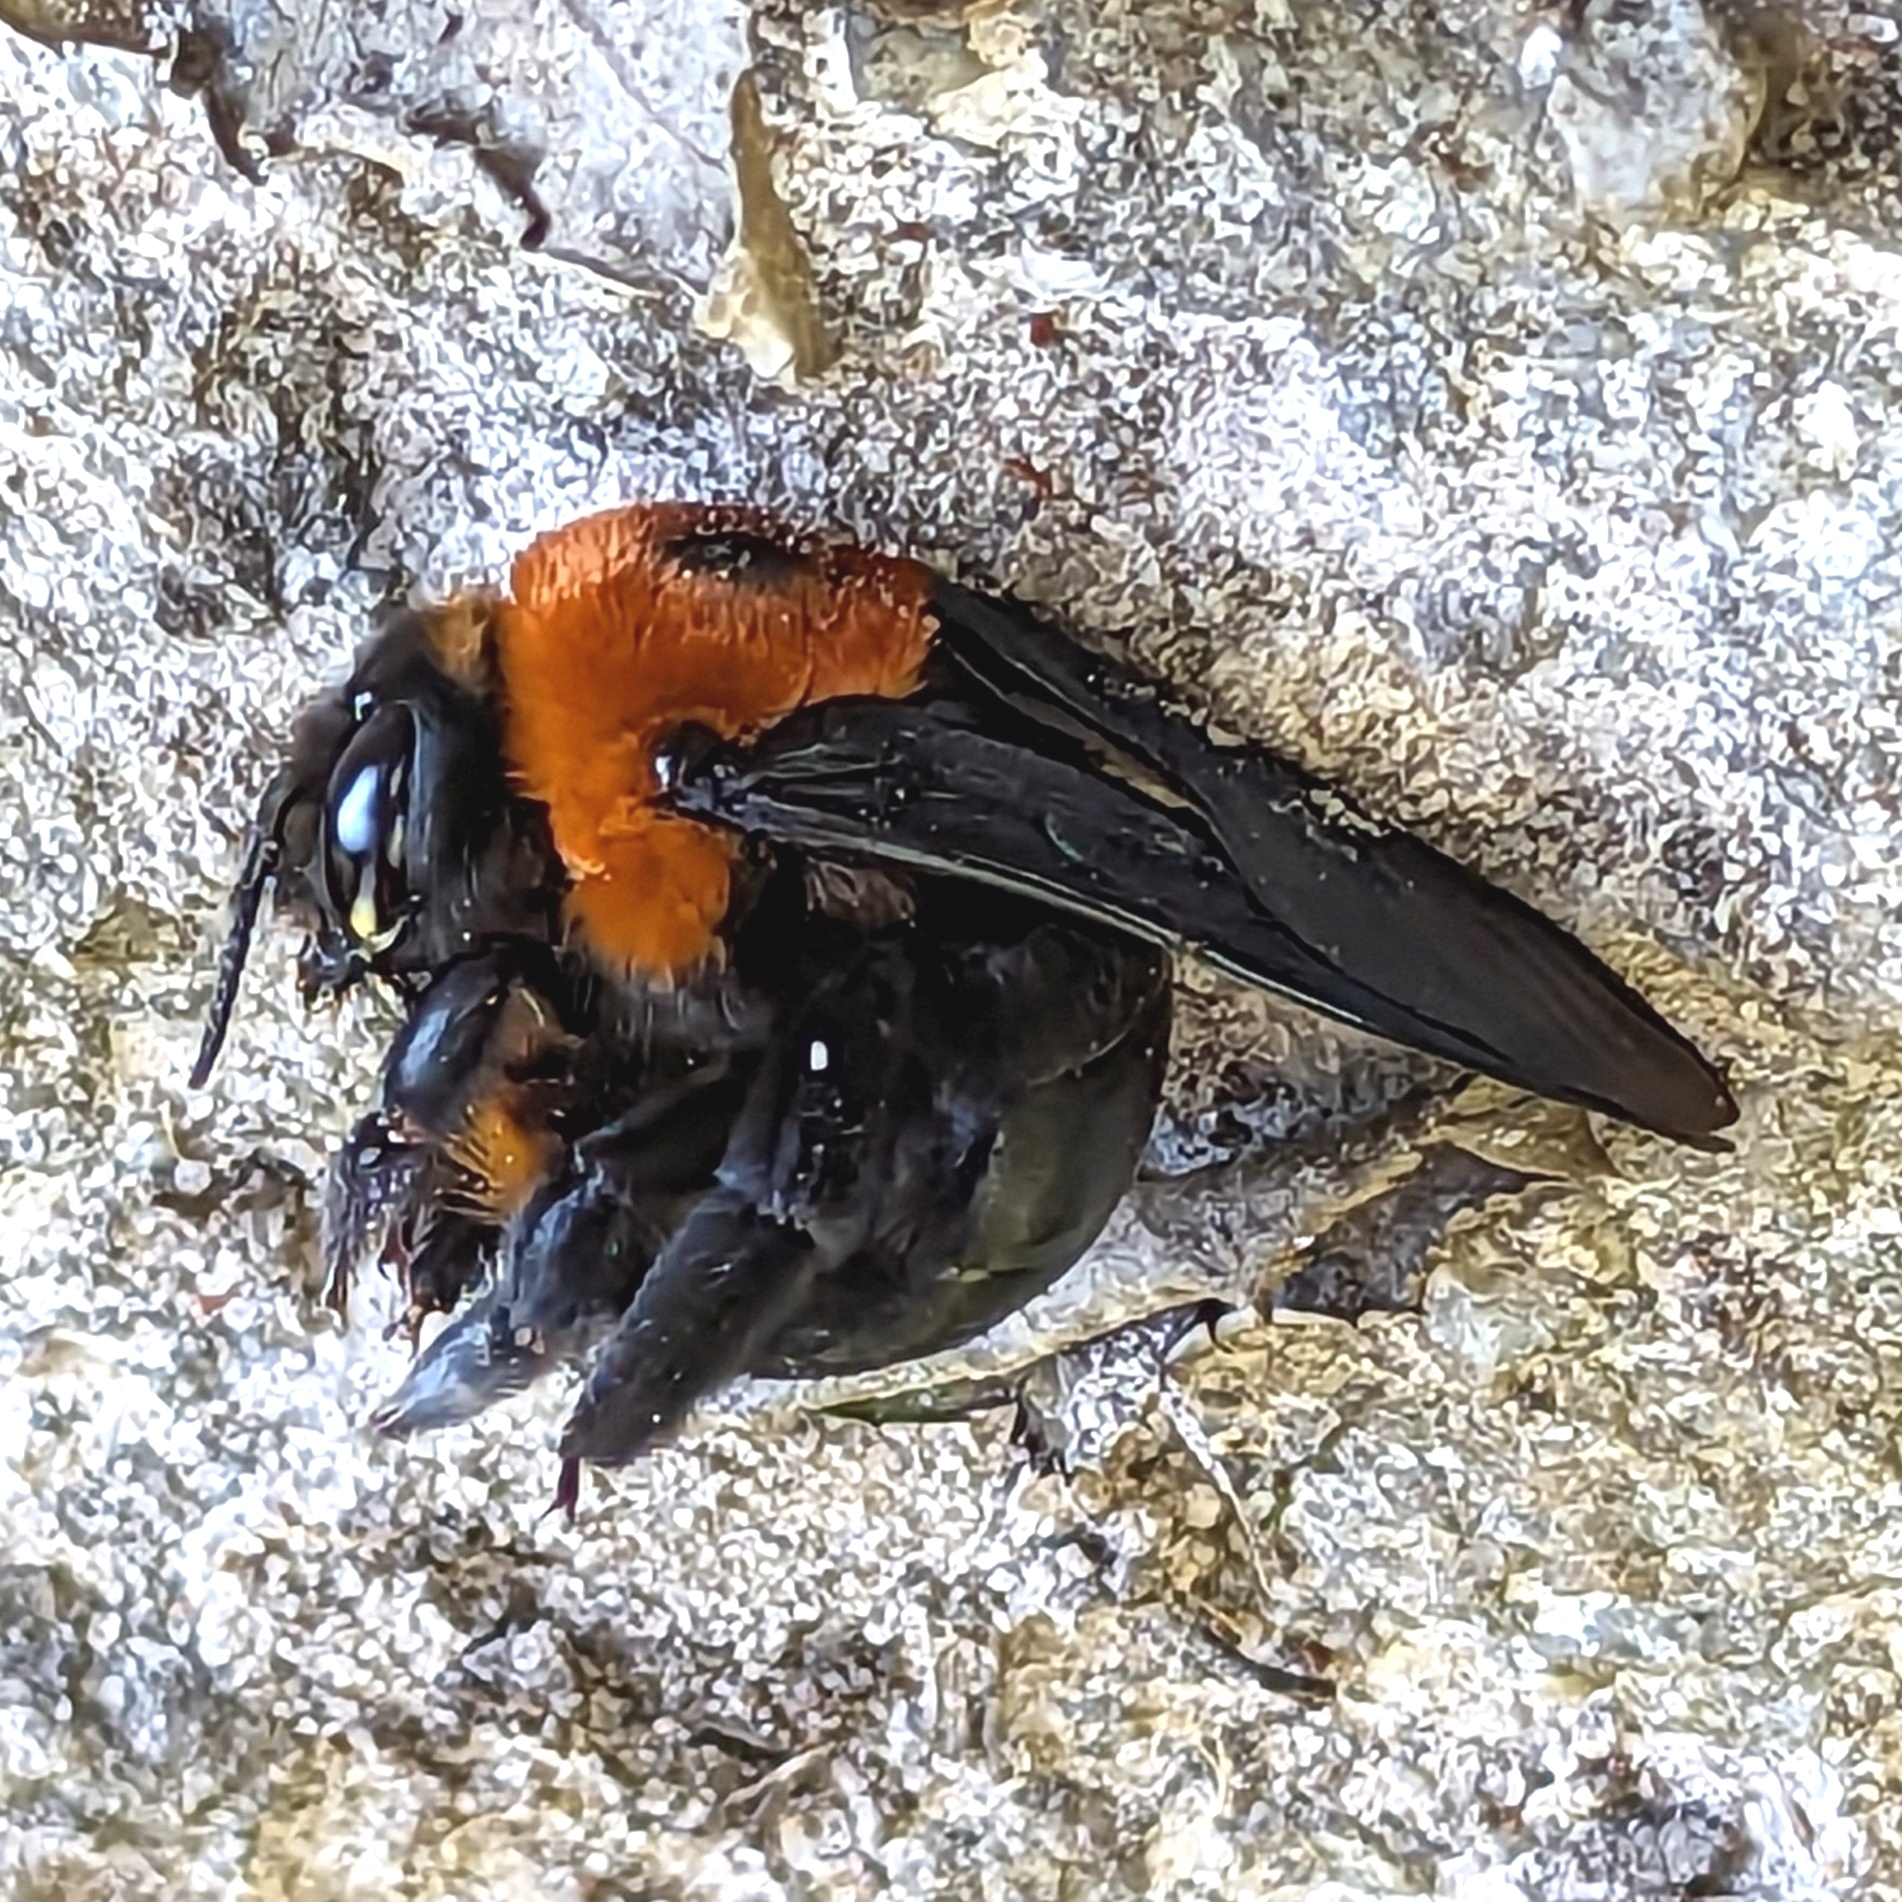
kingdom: Animalia
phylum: Arthropoda
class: Insecta
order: Hymenoptera
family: Apidae
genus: Xylocopa
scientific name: Xylocopa flavorufa
